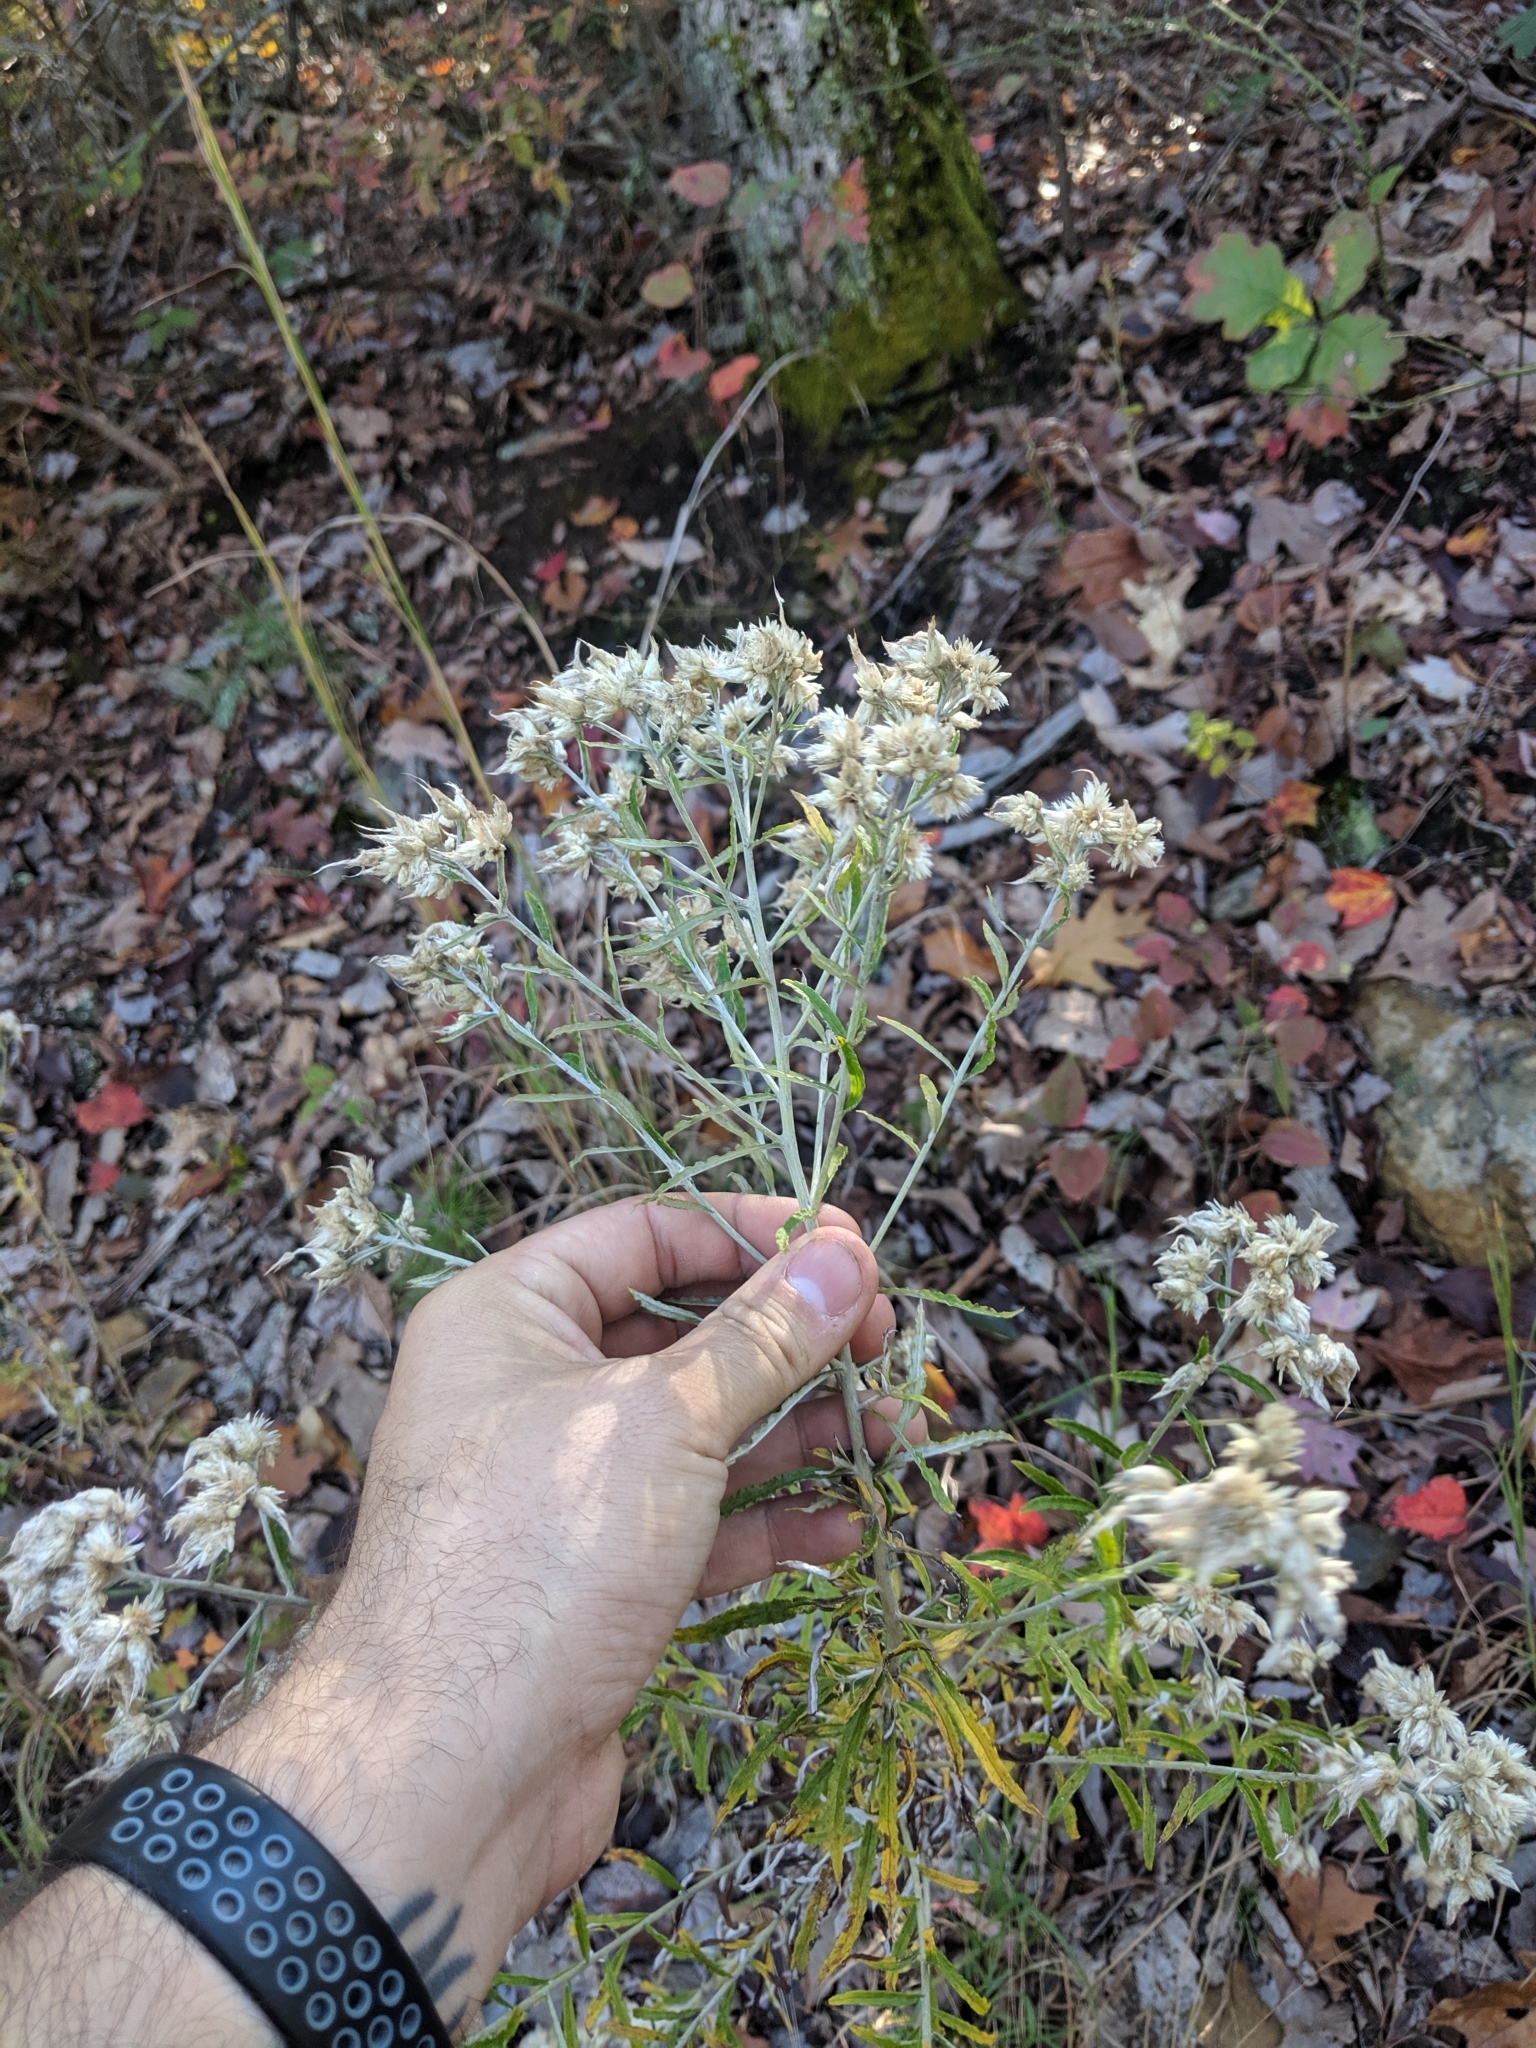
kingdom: Plantae
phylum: Tracheophyta
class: Magnoliopsida
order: Asterales
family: Asteraceae
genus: Pseudognaphalium
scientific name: Pseudognaphalium obtusifolium
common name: Eastern rabbit-tobacco
